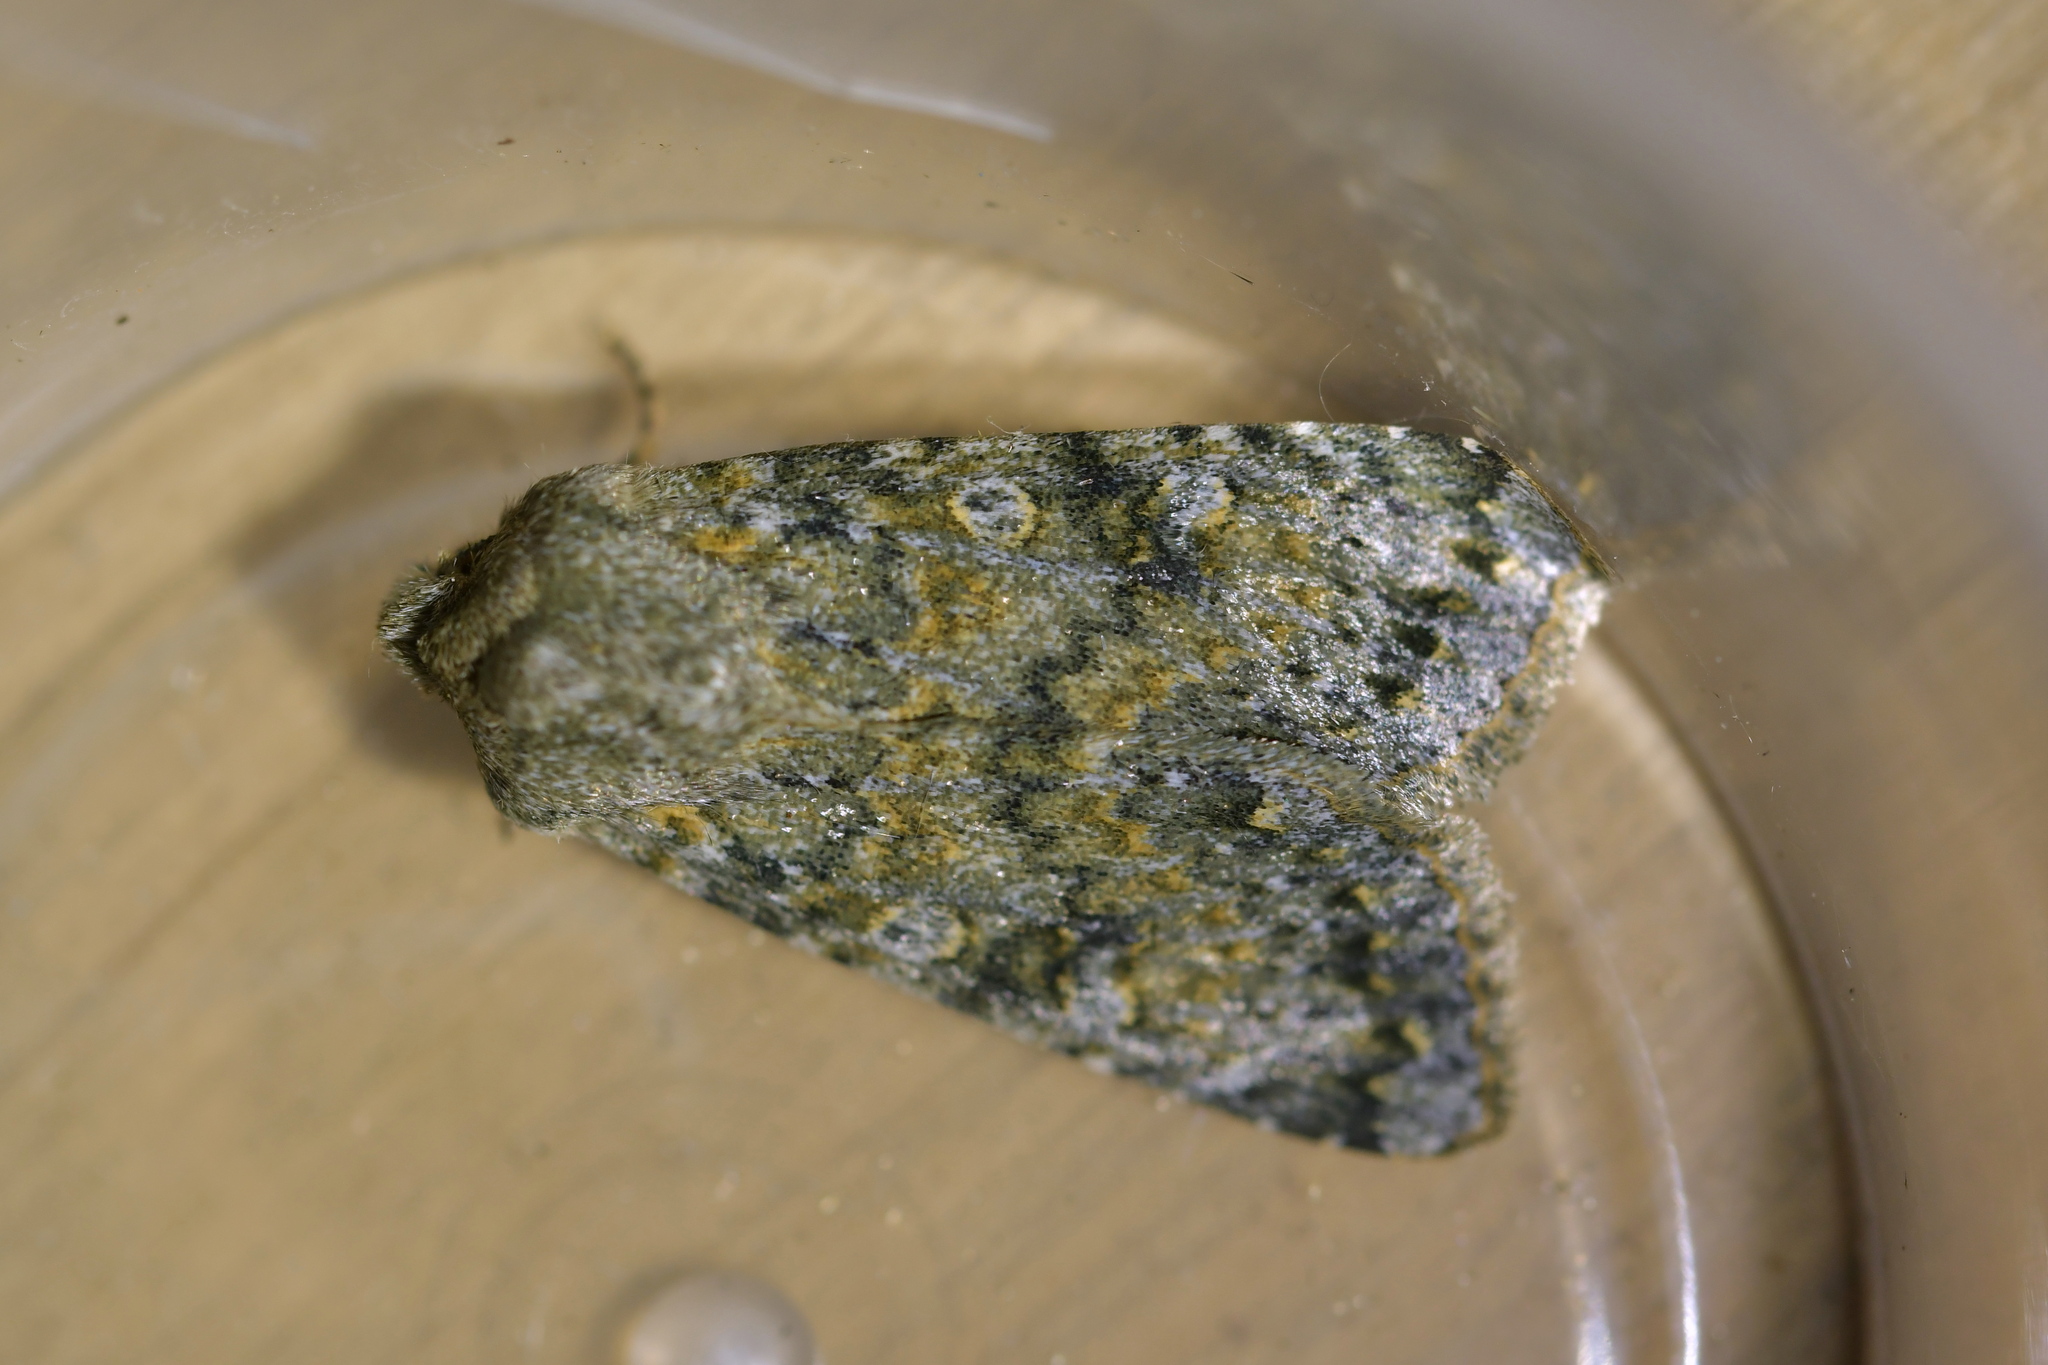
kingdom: Animalia
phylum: Arthropoda
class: Insecta
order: Lepidoptera
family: Noctuidae
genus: Ichneutica
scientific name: Ichneutica
